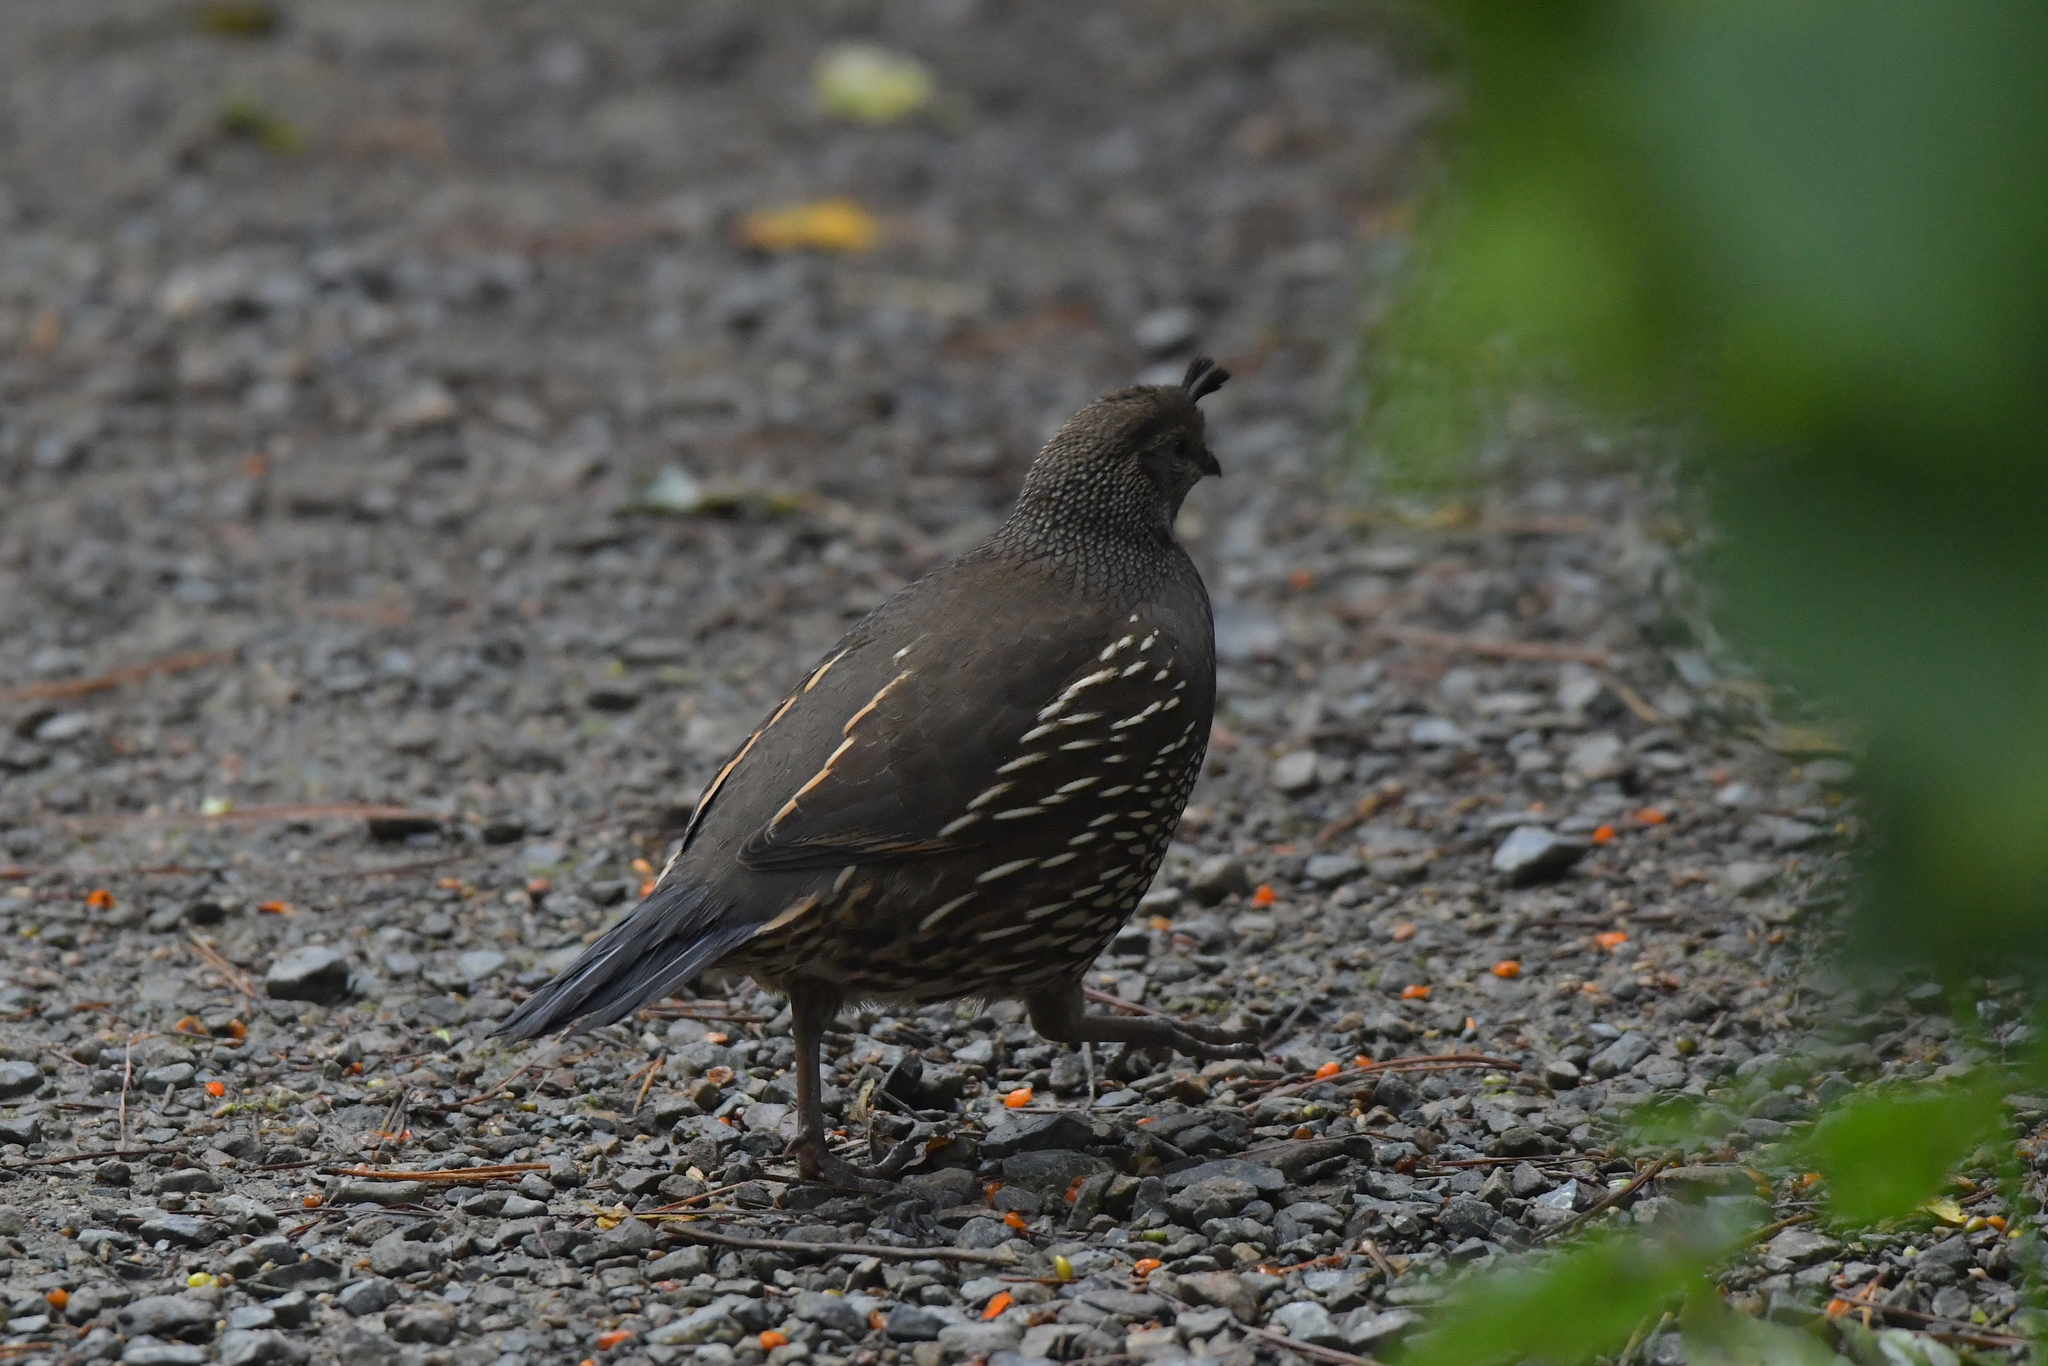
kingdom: Animalia
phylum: Chordata
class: Aves
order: Galliformes
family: Odontophoridae
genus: Callipepla
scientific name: Callipepla californica
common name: California quail
